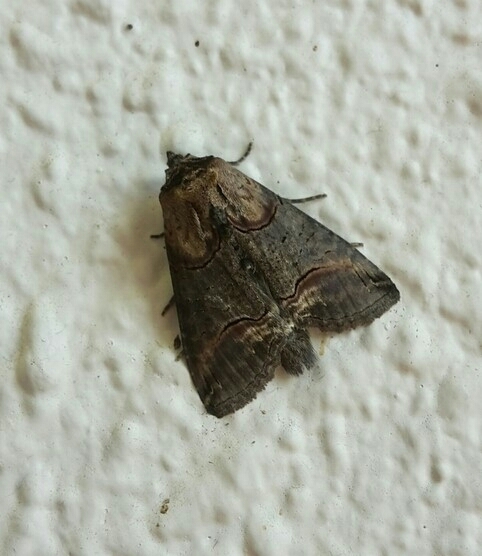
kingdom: Animalia
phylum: Arthropoda
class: Insecta
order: Lepidoptera
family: Noctuidae
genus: Abrostola
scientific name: Abrostola triplasia
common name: Dark spectacle
